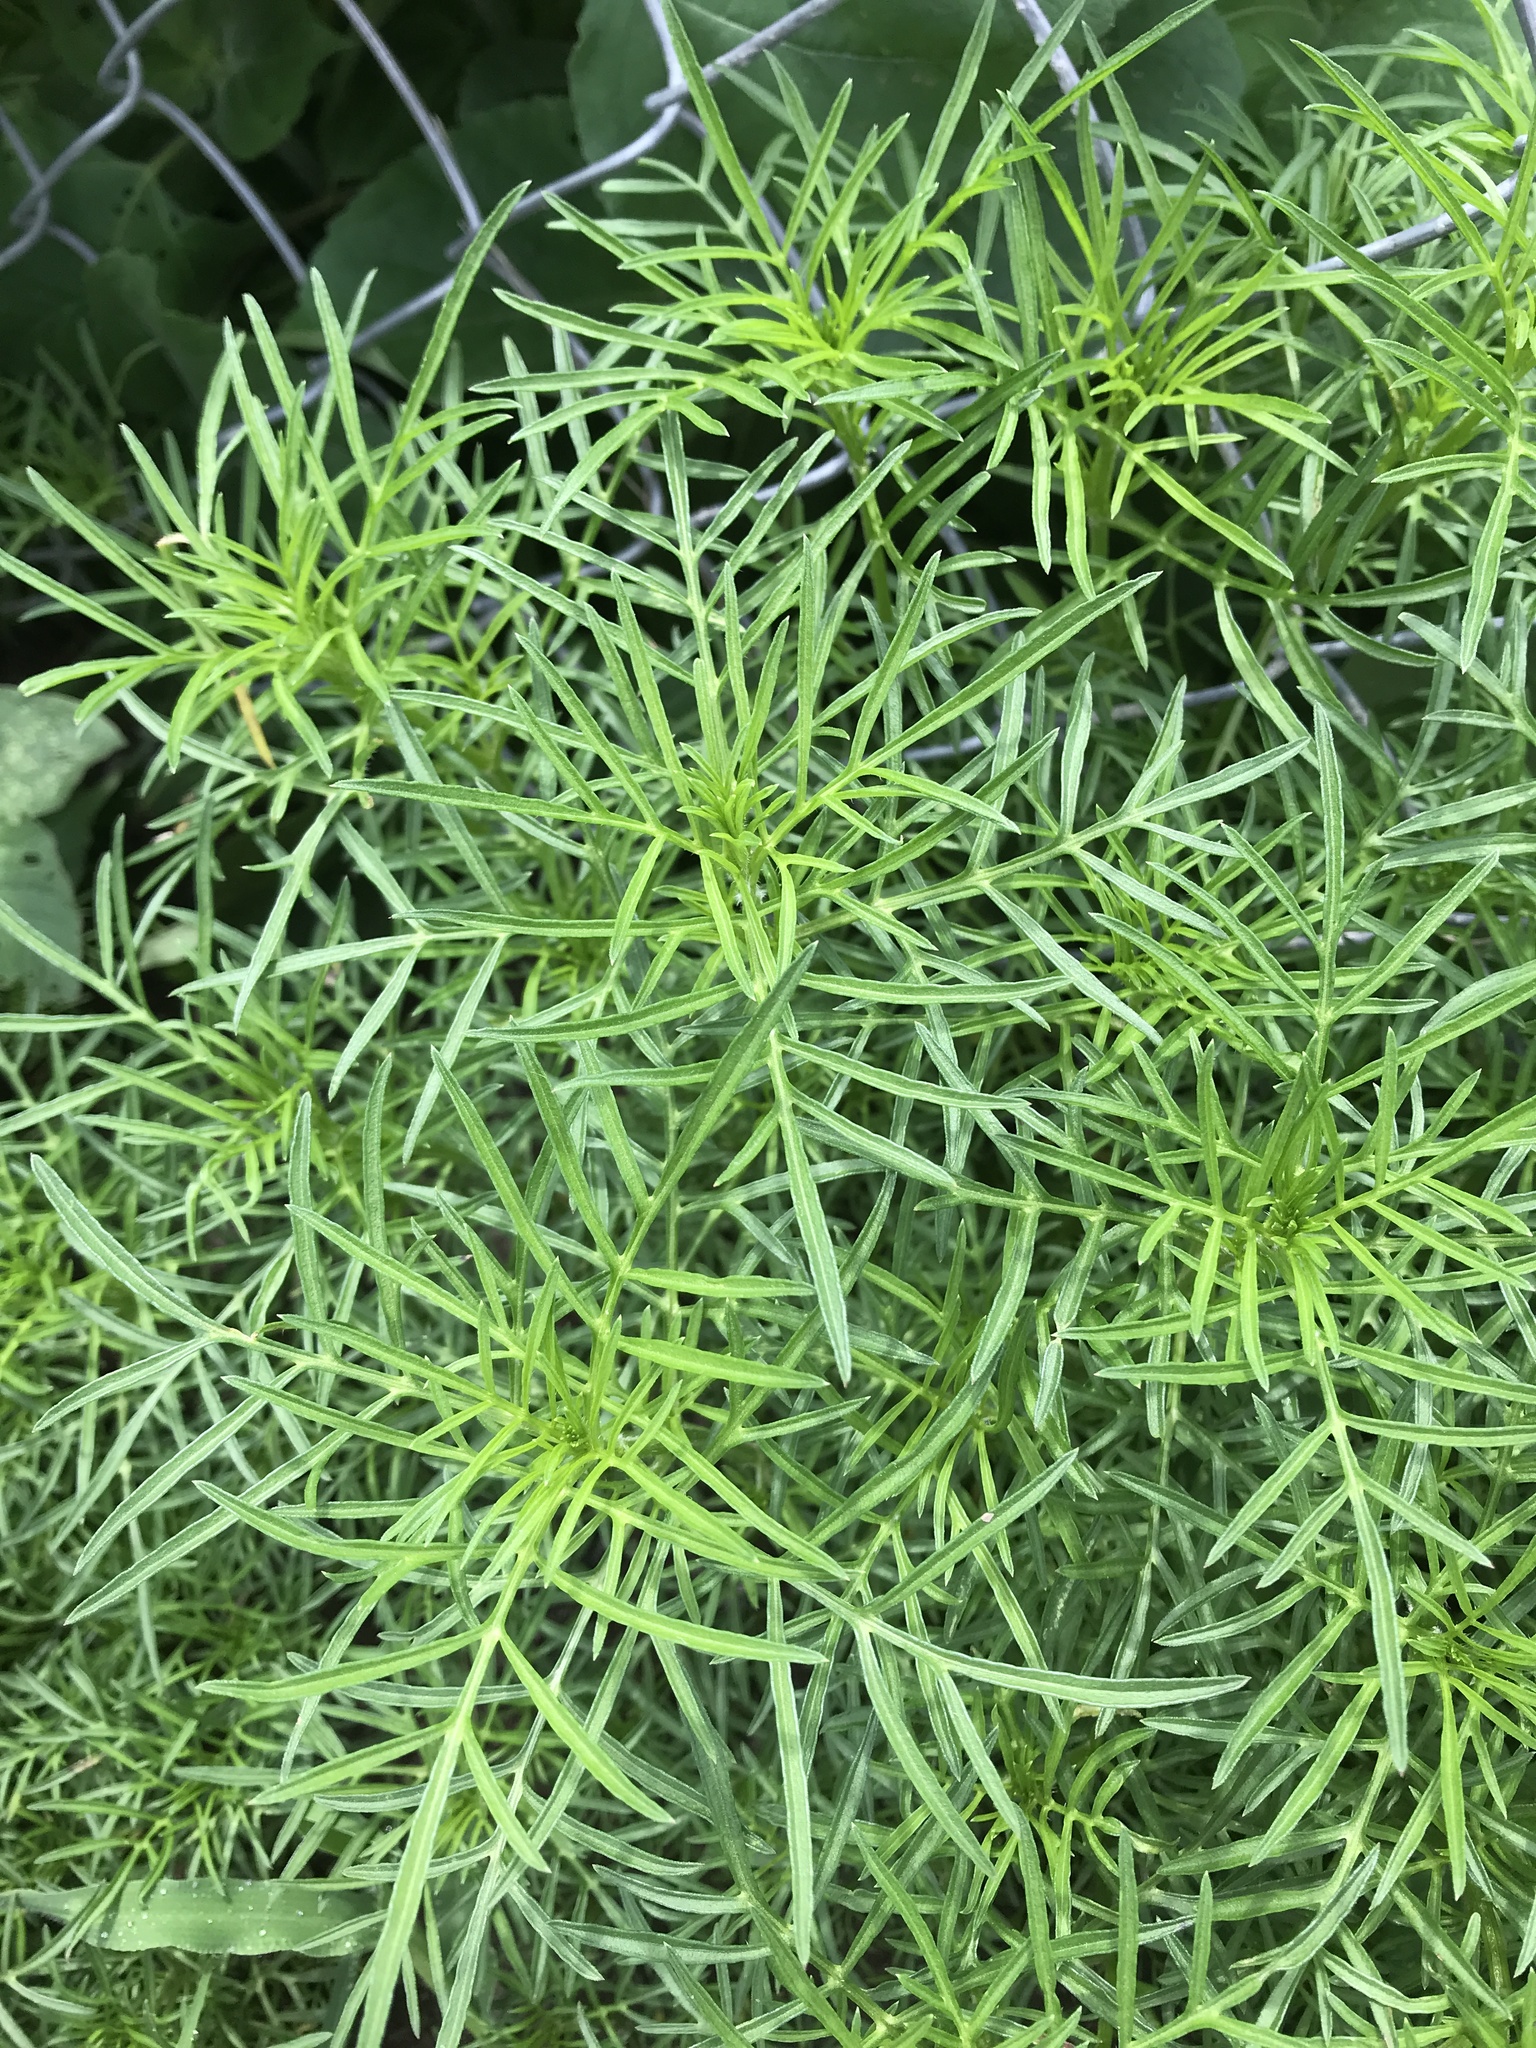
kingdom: Plantae
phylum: Tracheophyta
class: Magnoliopsida
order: Asterales
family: Asteraceae
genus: Cosmos
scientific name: Cosmos bipinnatus
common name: Garden cosmos
